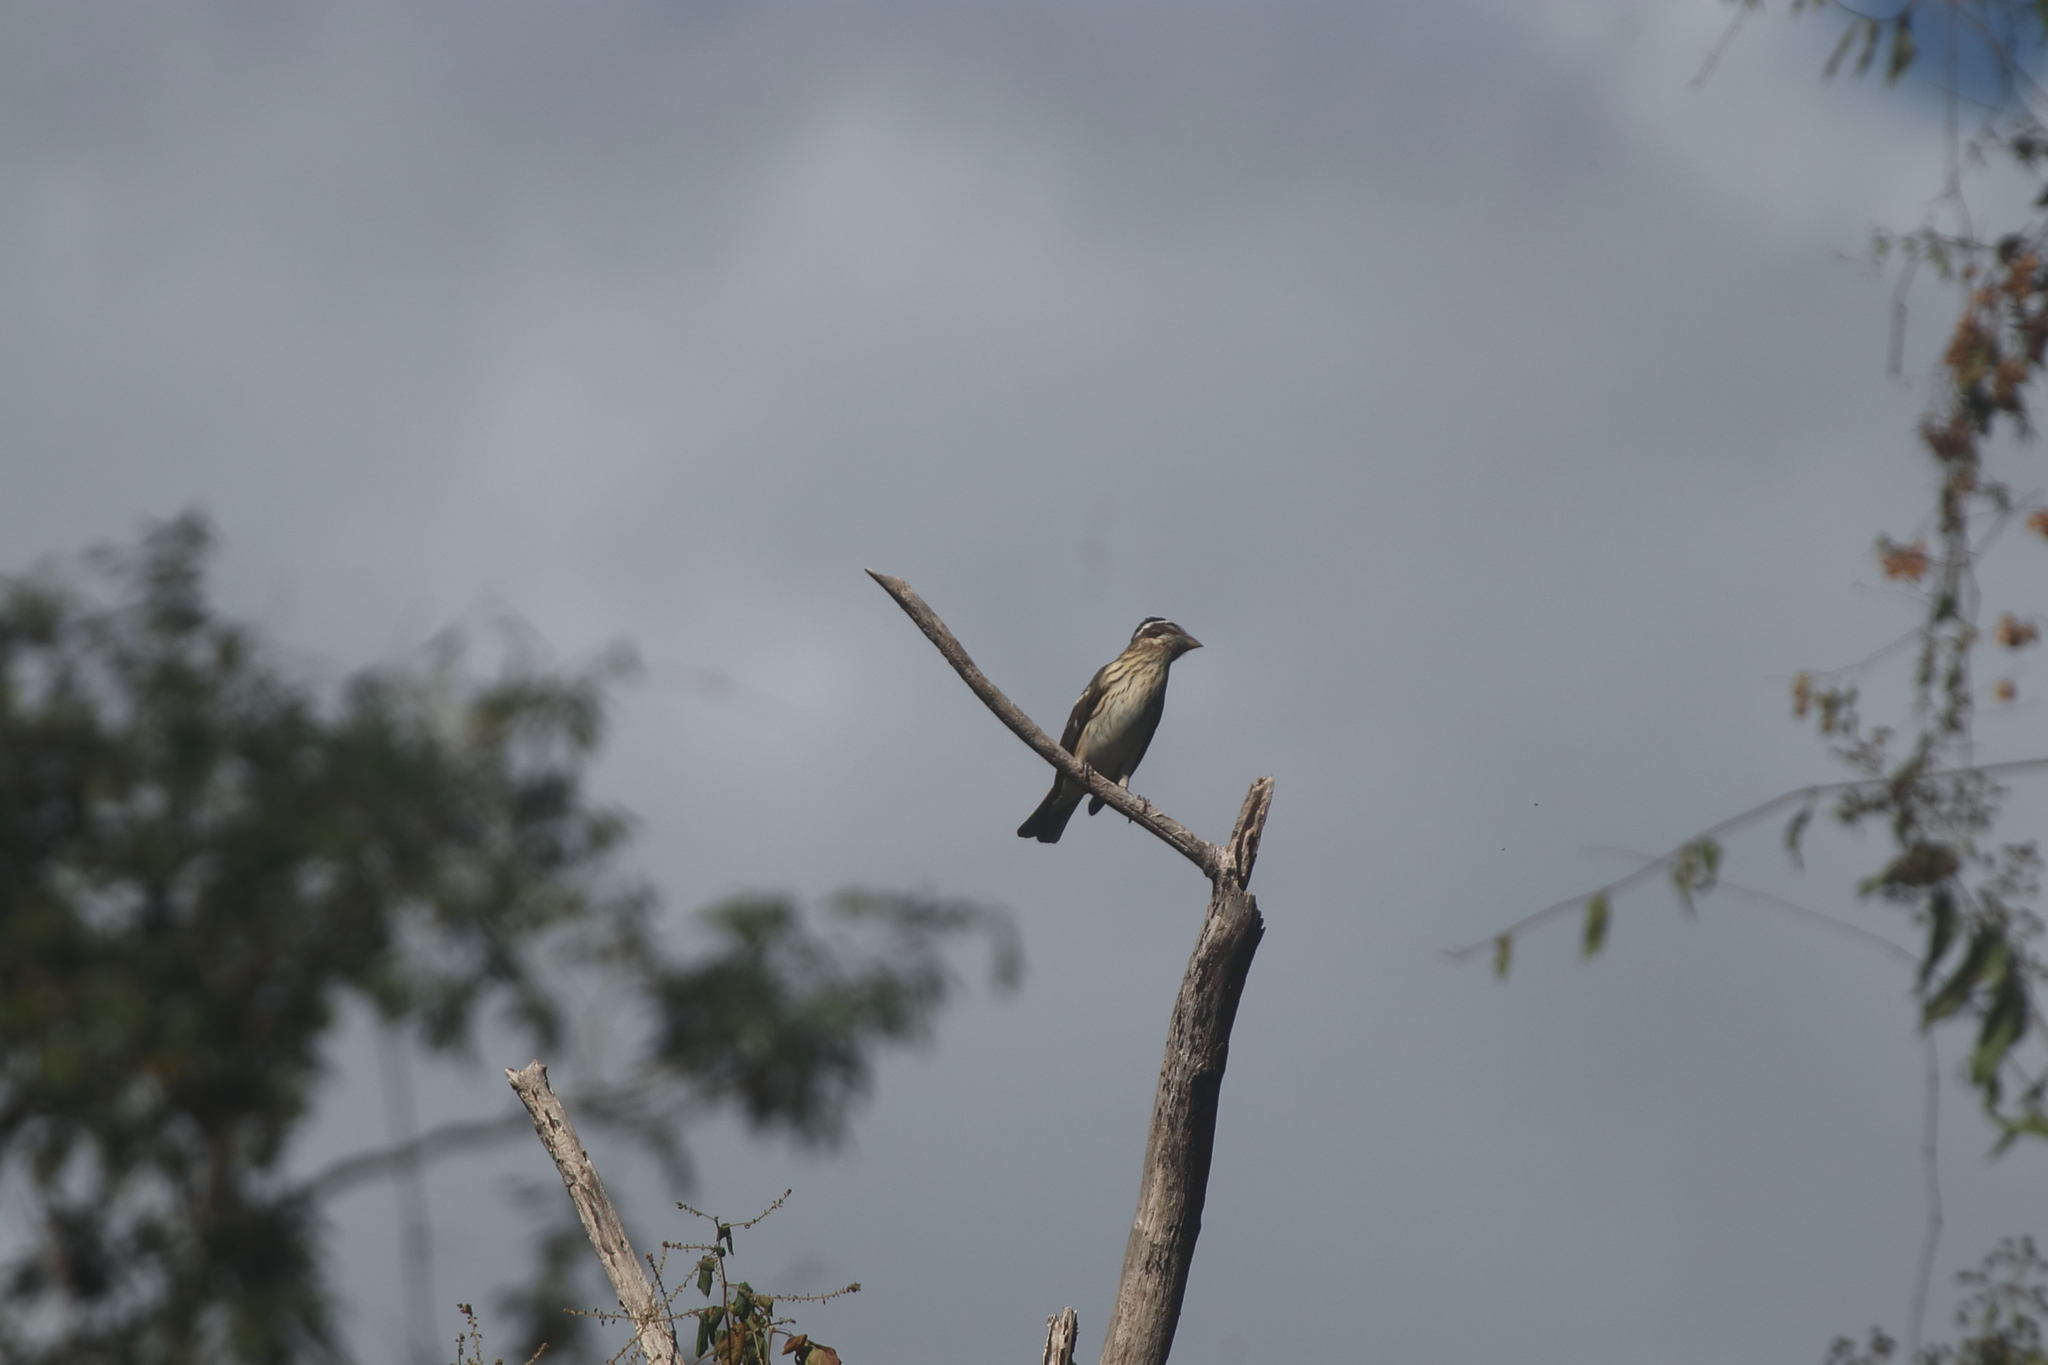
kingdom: Animalia
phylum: Chordata
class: Aves
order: Passeriformes
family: Cardinalidae
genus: Pheucticus
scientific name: Pheucticus ludovicianus
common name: Rose-breasted grosbeak
